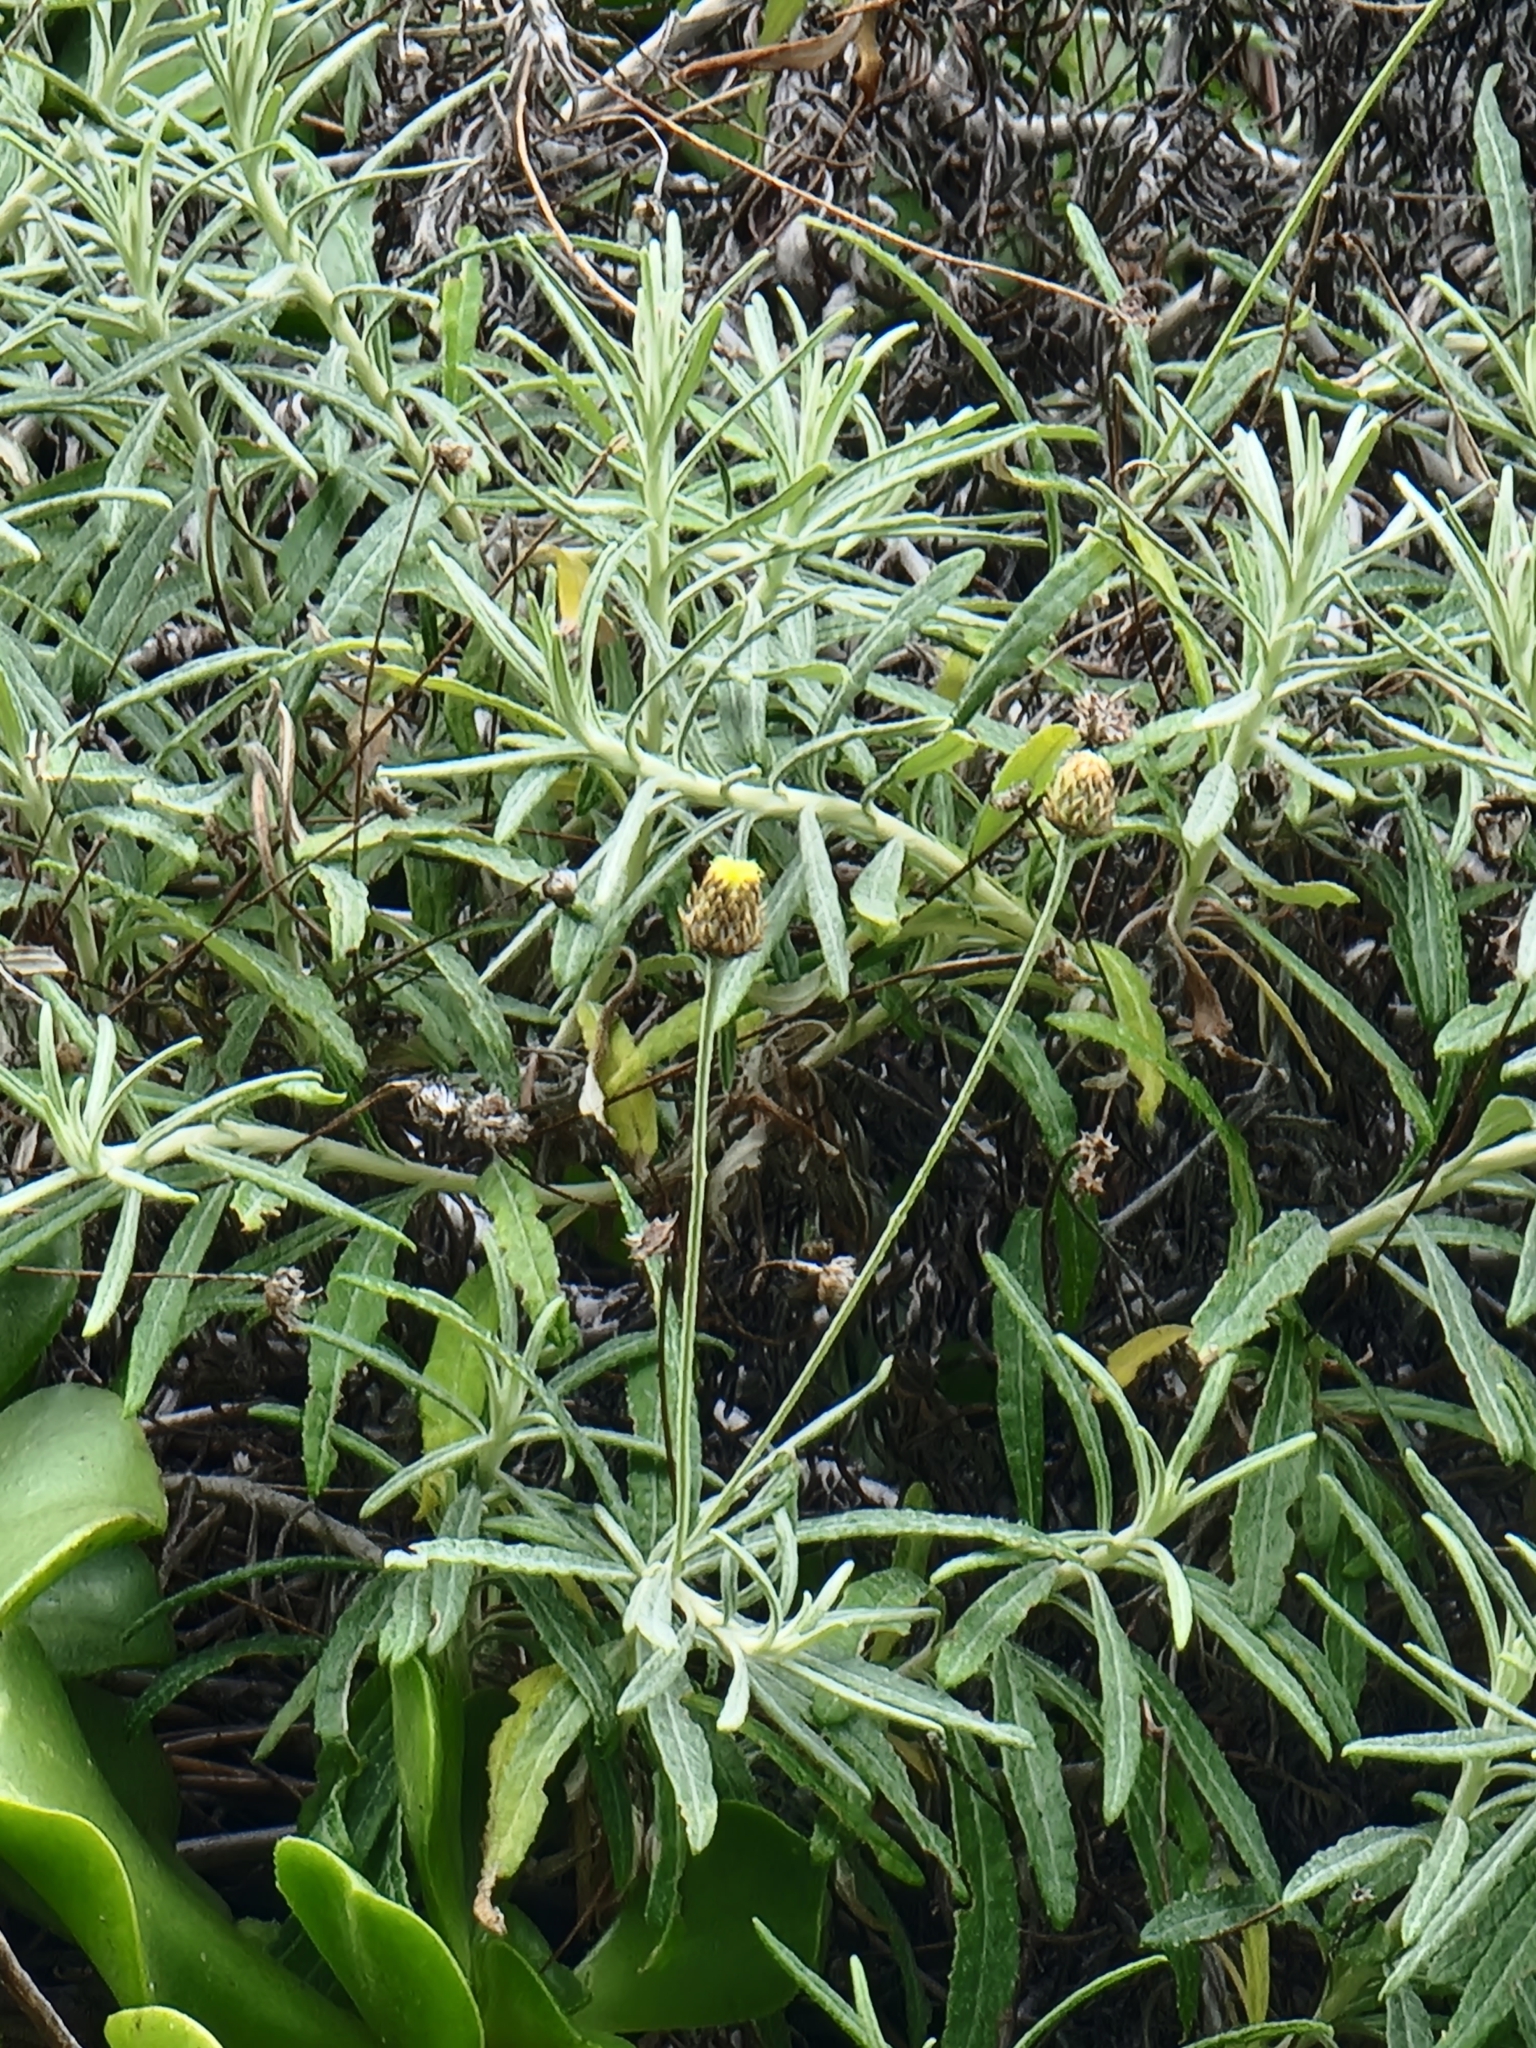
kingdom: Plantae
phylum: Tracheophyta
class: Magnoliopsida
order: Asterales
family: Asteraceae
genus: Phagnalon
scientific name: Phagnalon saxatile
